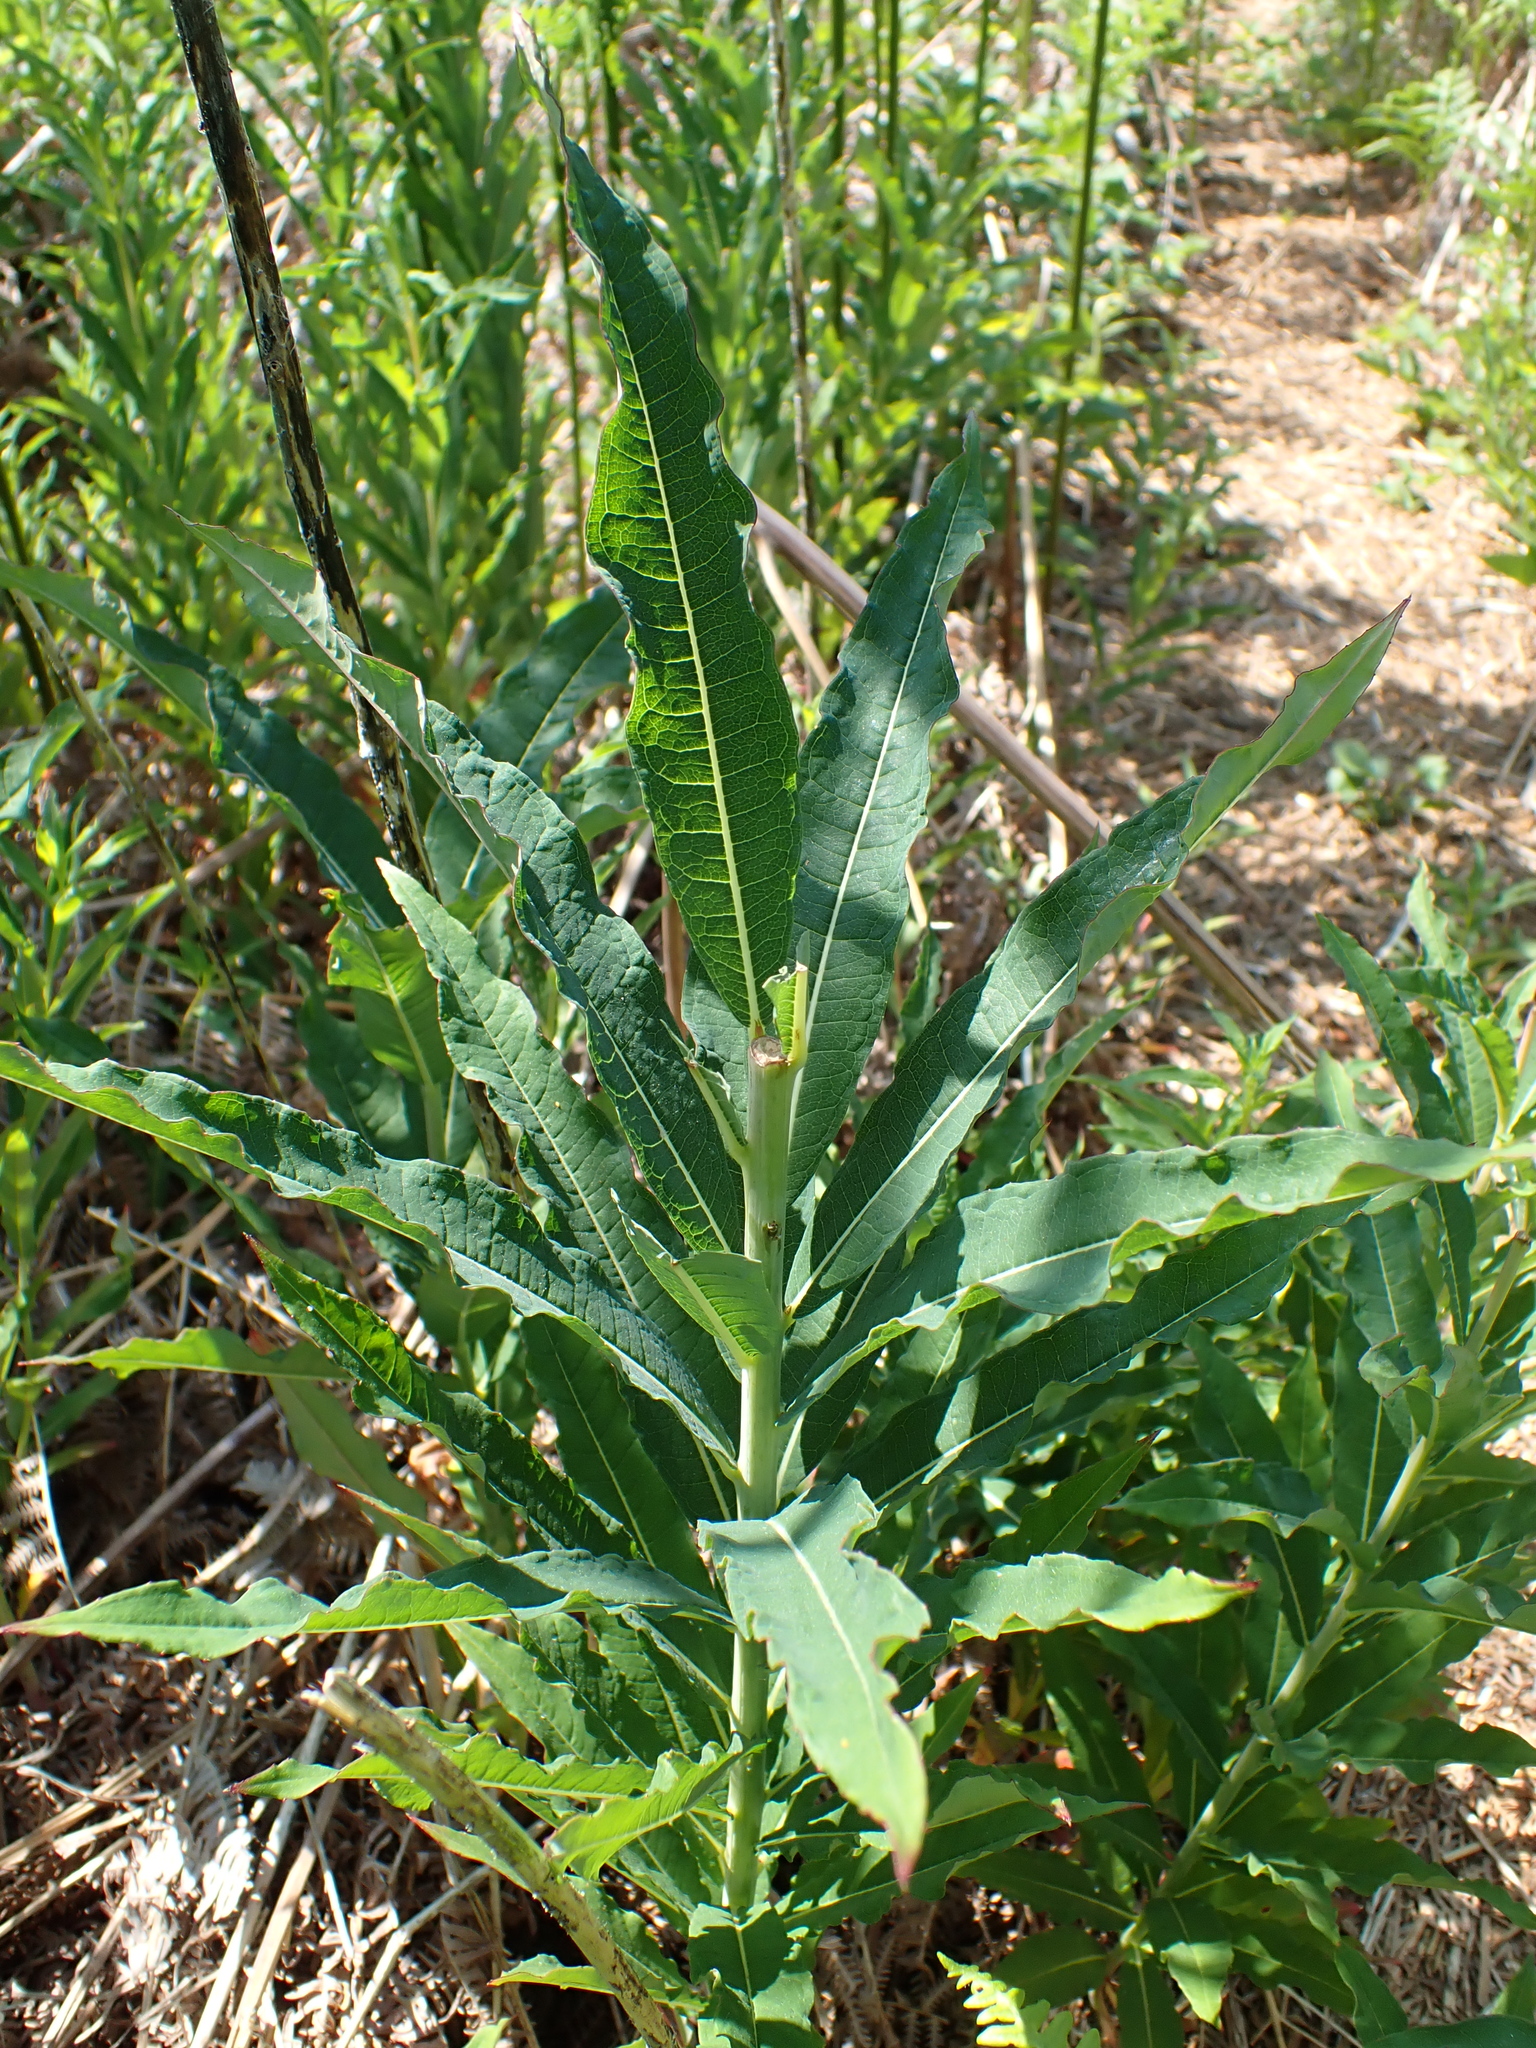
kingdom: Plantae
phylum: Tracheophyta
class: Magnoliopsida
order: Myrtales
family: Onagraceae
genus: Chamaenerion
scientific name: Chamaenerion angustifolium
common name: Fireweed
